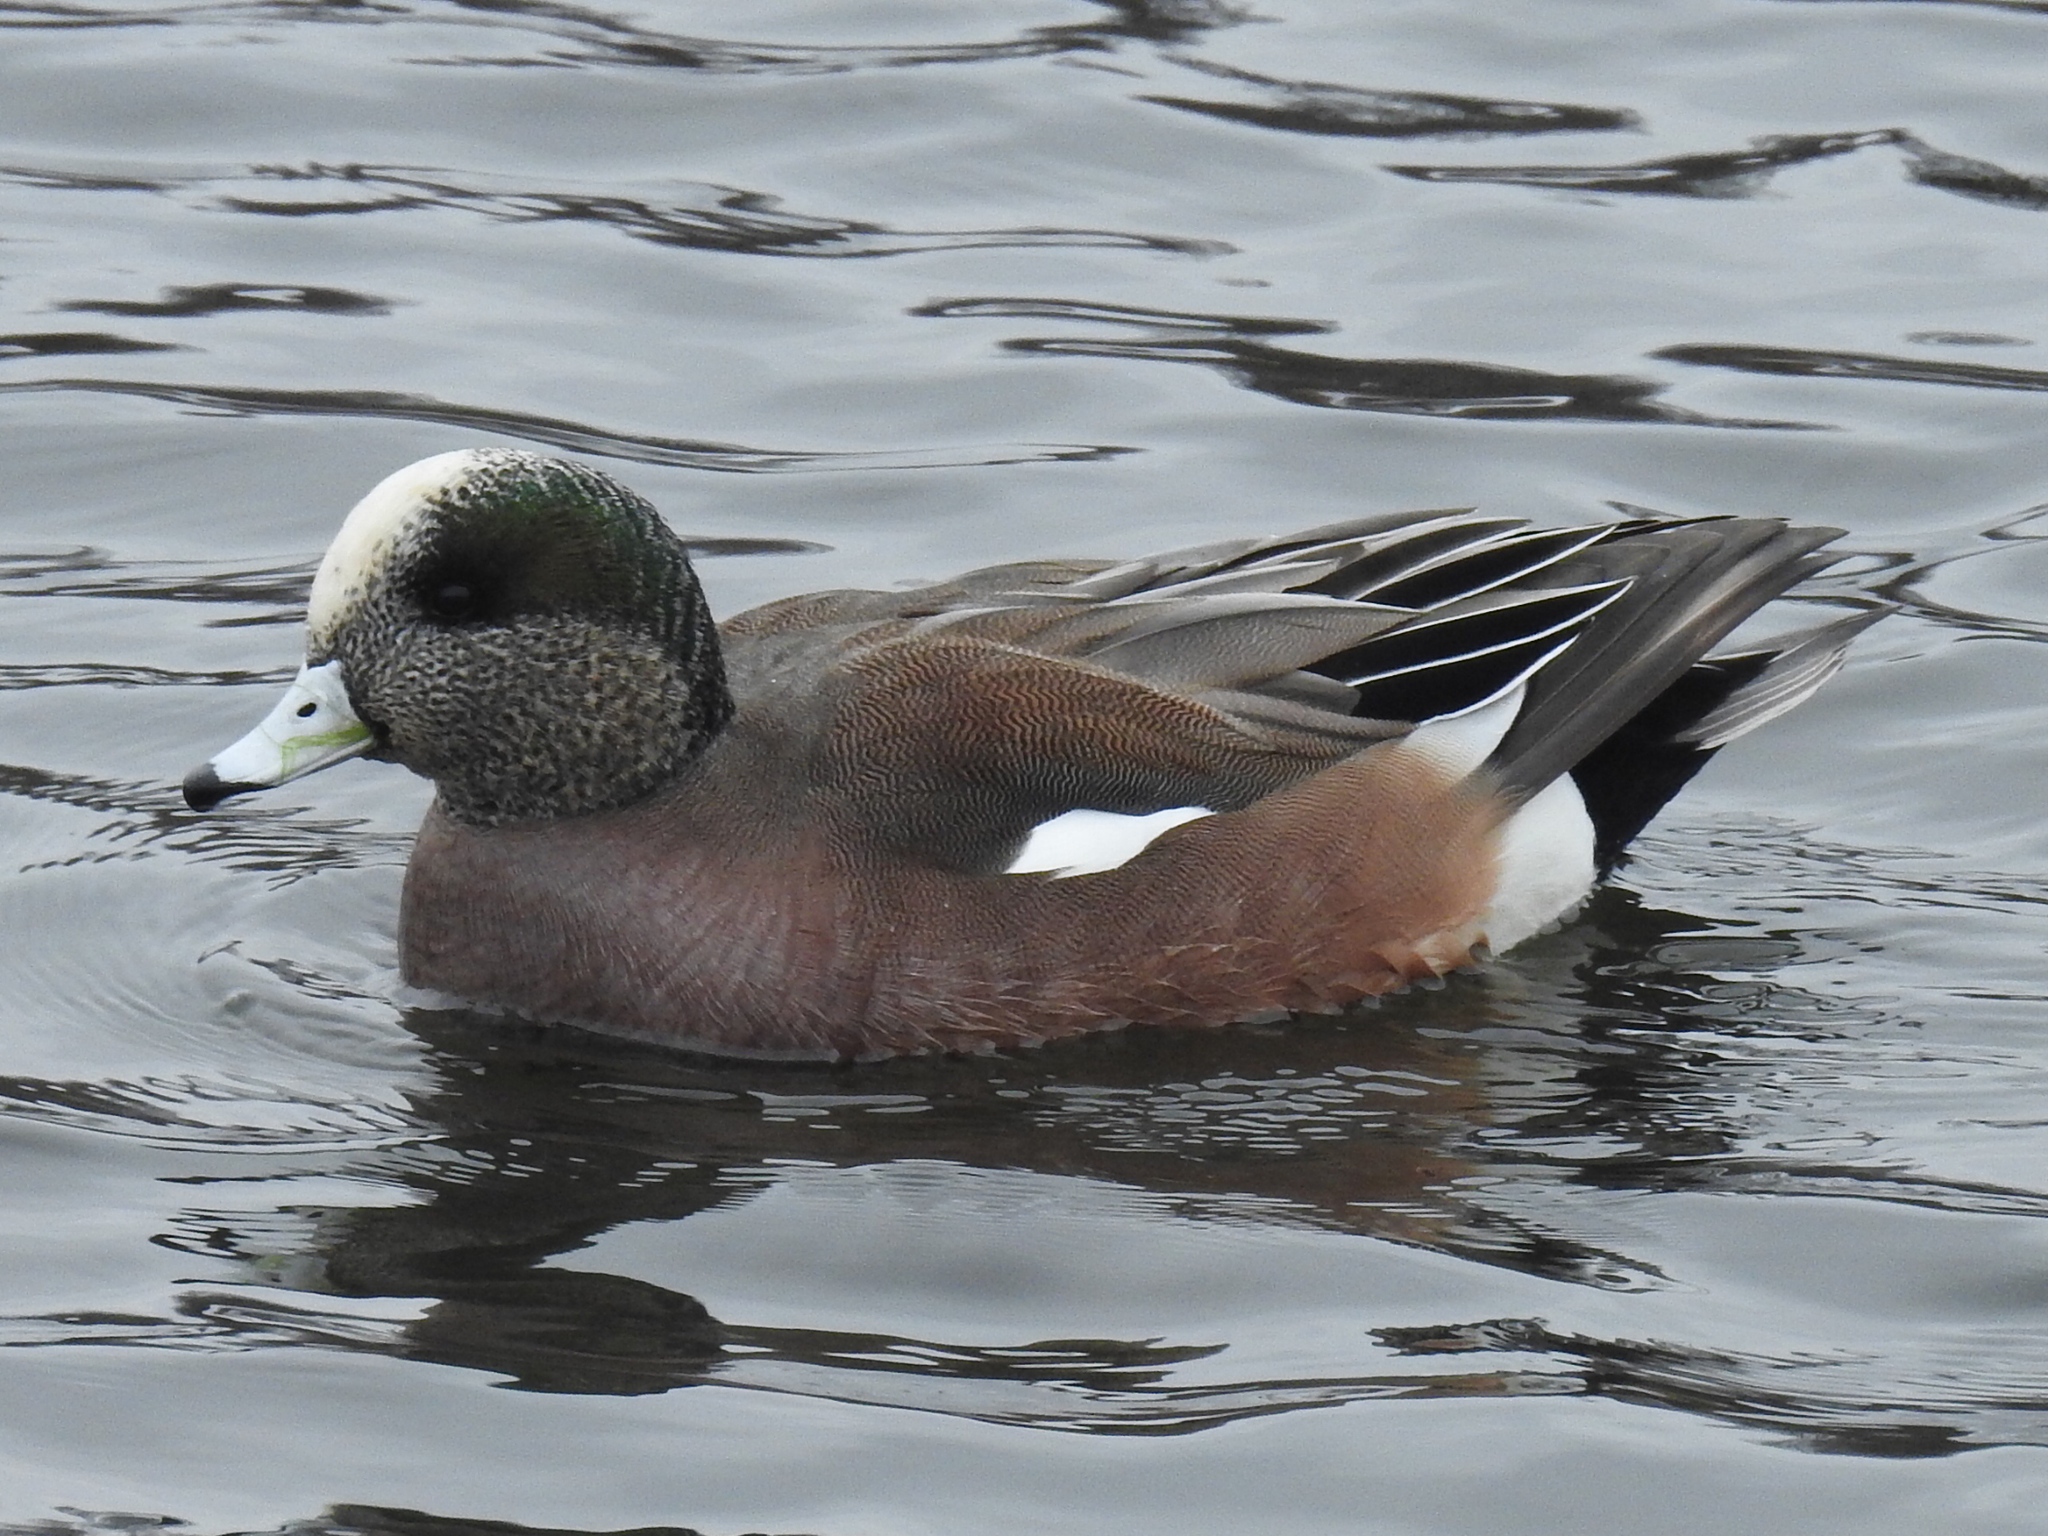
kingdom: Animalia
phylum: Chordata
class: Aves
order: Anseriformes
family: Anatidae
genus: Mareca
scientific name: Mareca americana
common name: American wigeon
